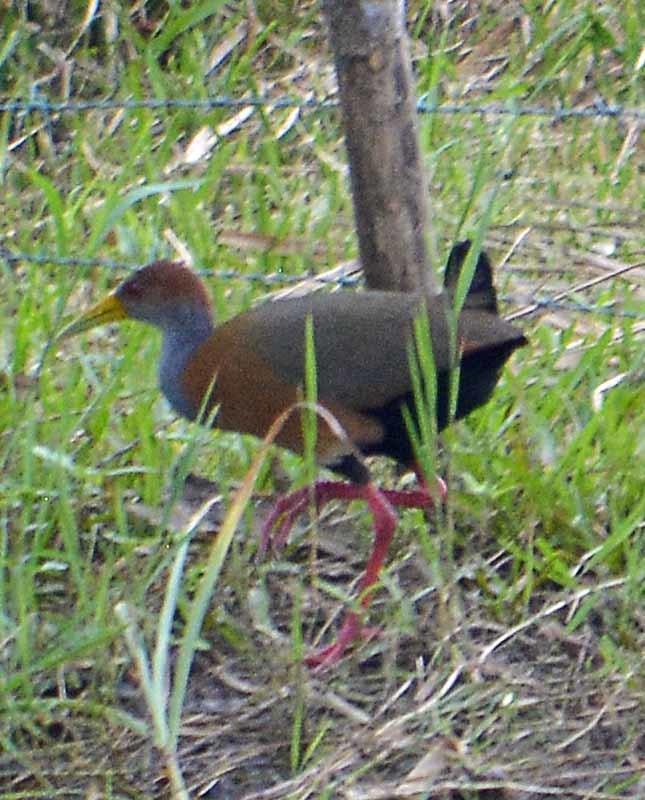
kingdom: Animalia
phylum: Chordata
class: Aves
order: Gruiformes
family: Rallidae
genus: Aramides
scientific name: Aramides albiventris
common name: Russet-naped wood-rail
